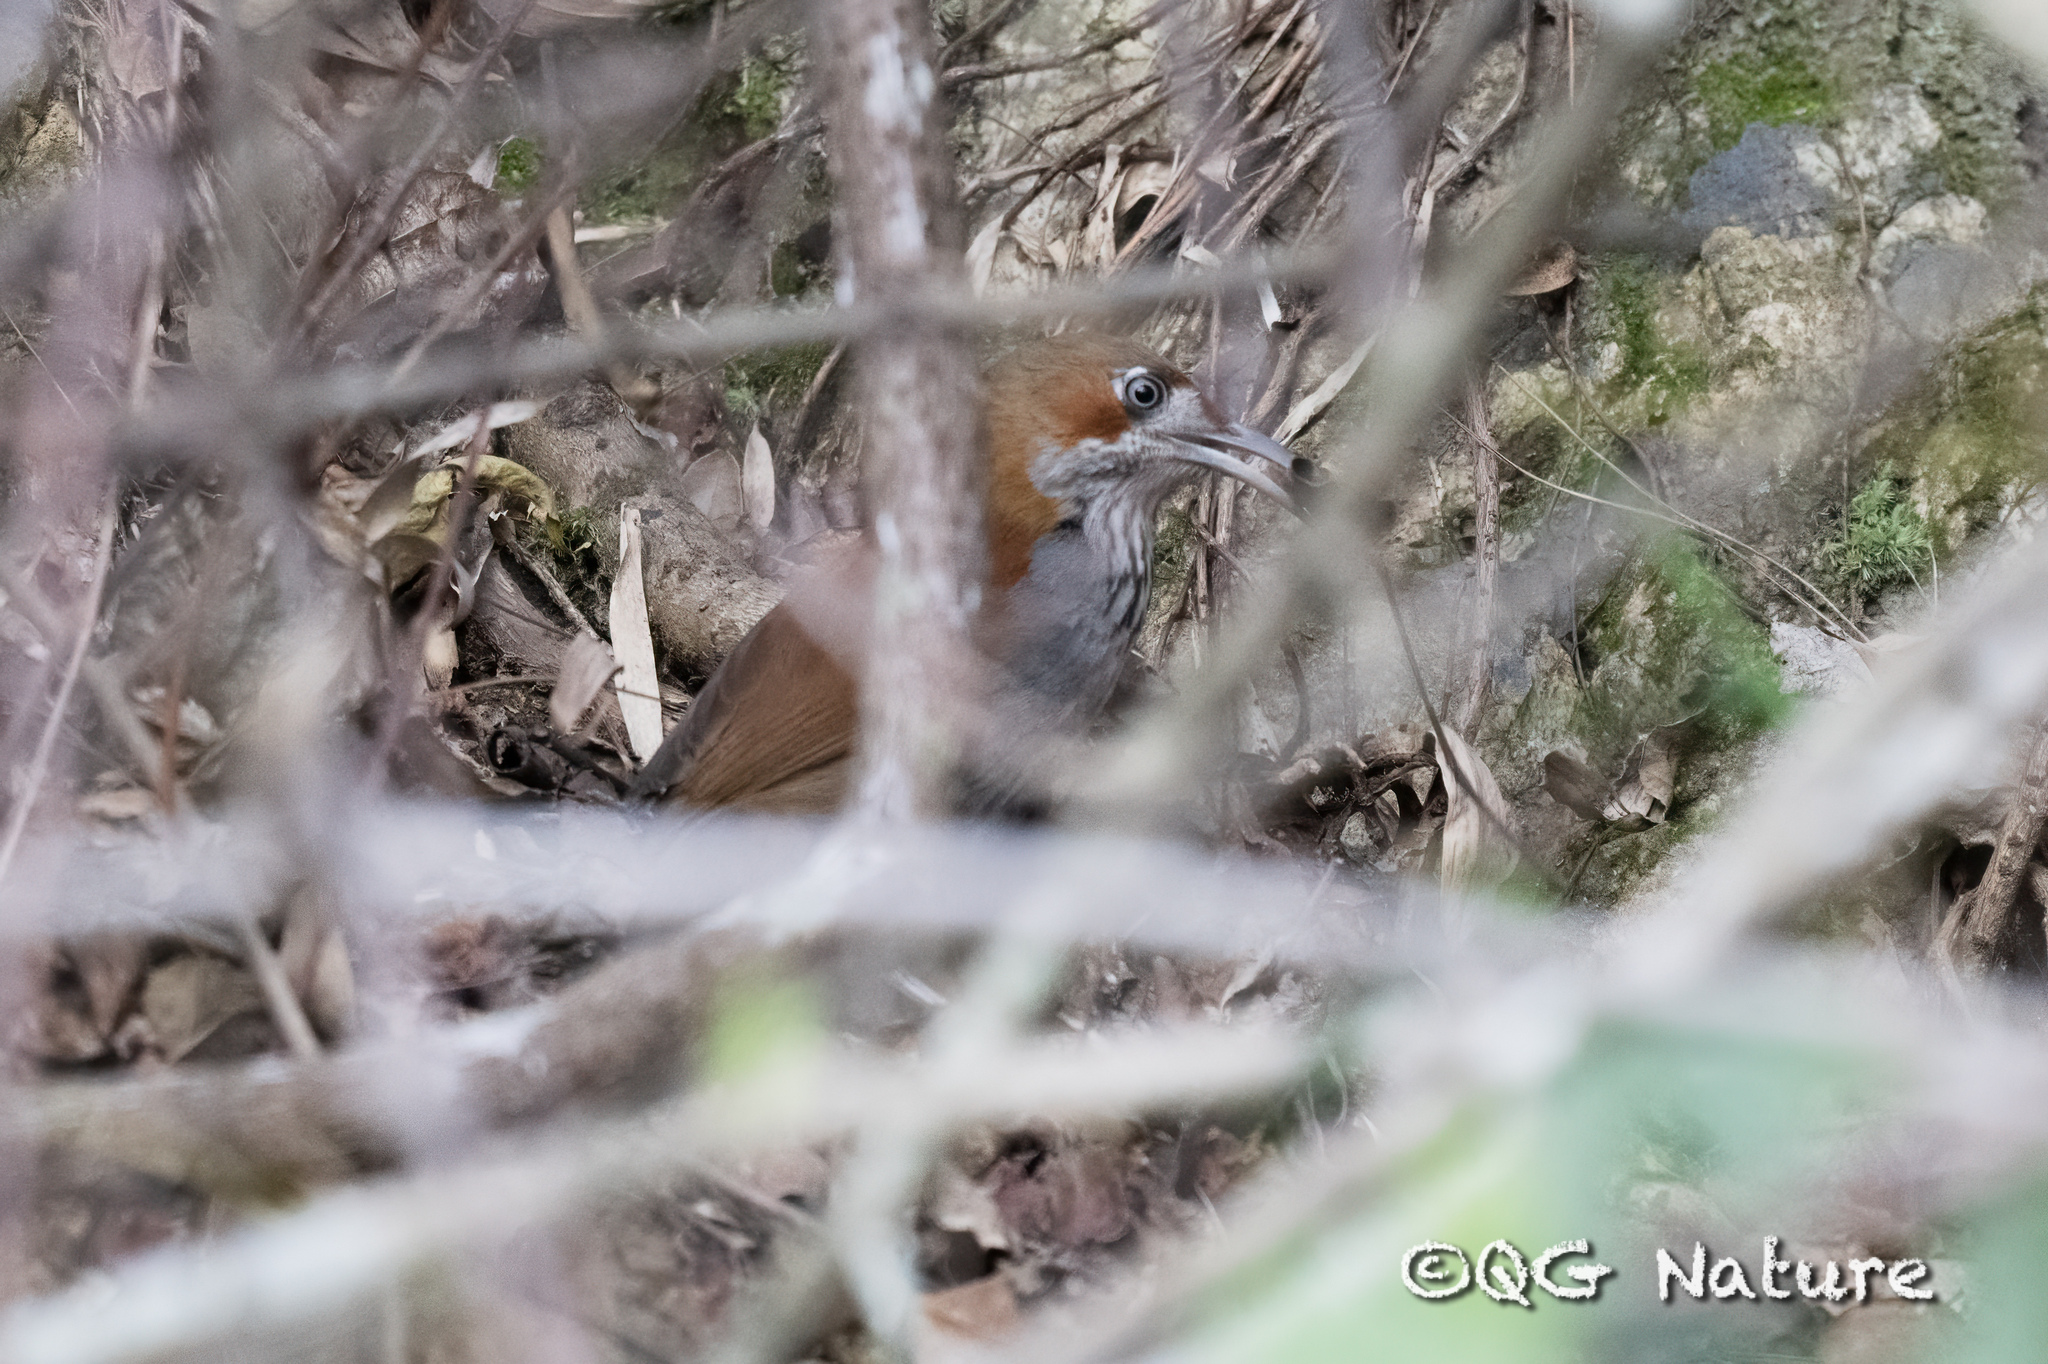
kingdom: Animalia
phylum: Chordata
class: Aves
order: Passeriformes
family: Timaliidae
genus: Pomatorhinus
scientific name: Pomatorhinus swinhoei
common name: Grey-sided scimitar babbler
